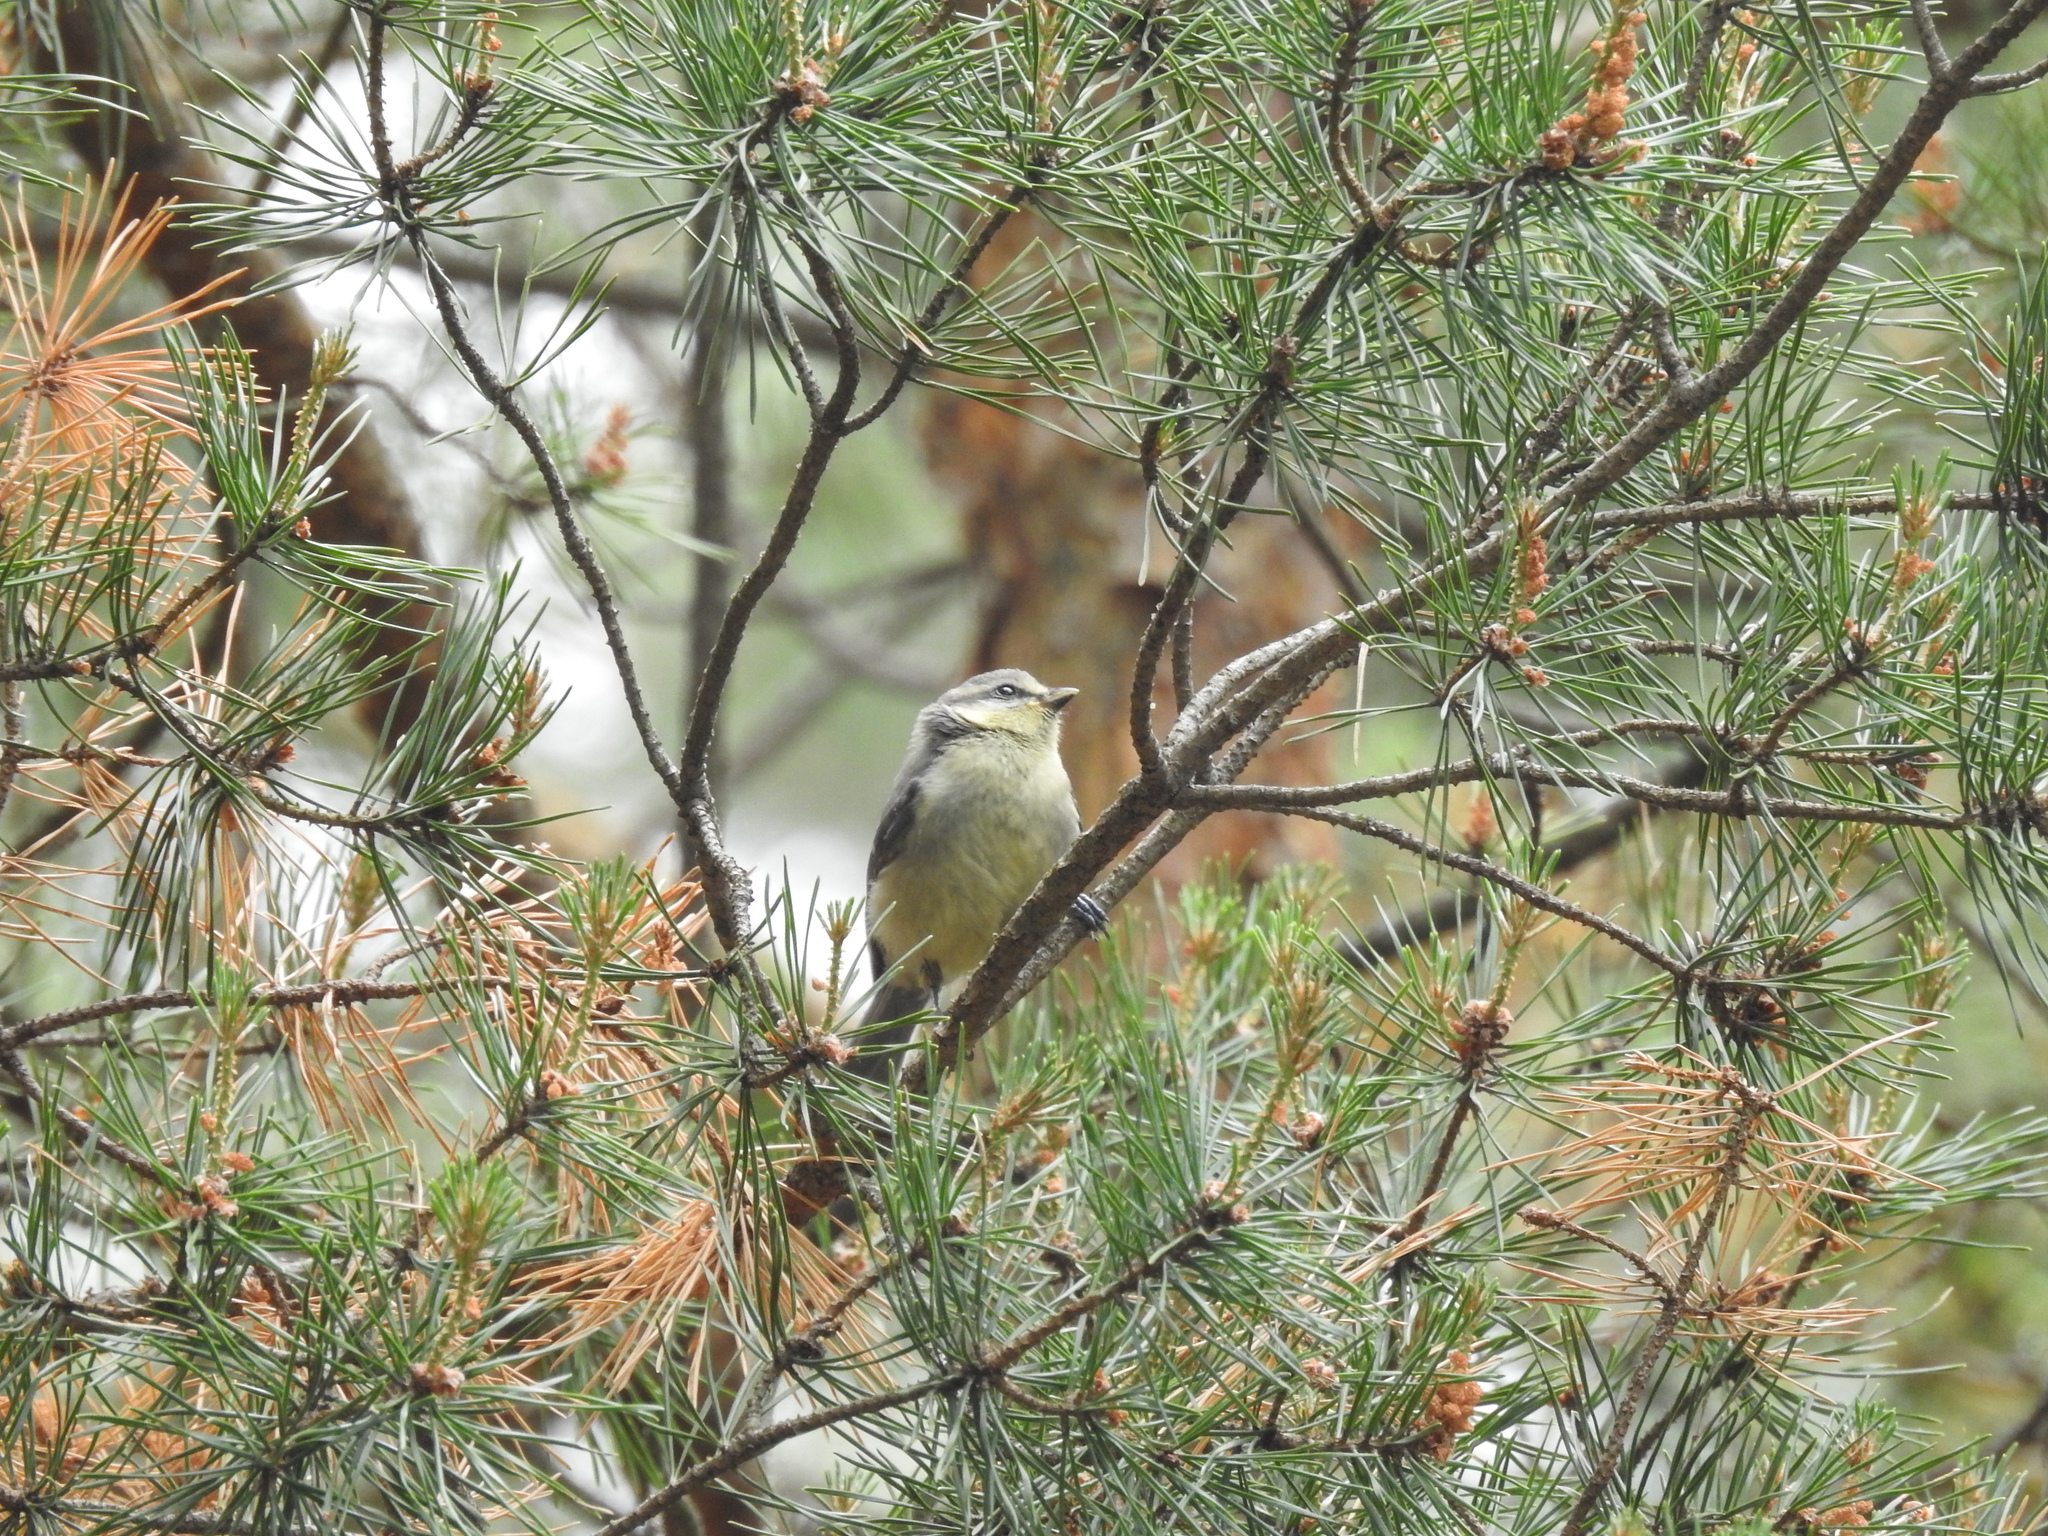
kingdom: Animalia
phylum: Chordata
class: Aves
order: Passeriformes
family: Paridae
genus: Cyanistes
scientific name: Cyanistes caeruleus
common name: Eurasian blue tit
